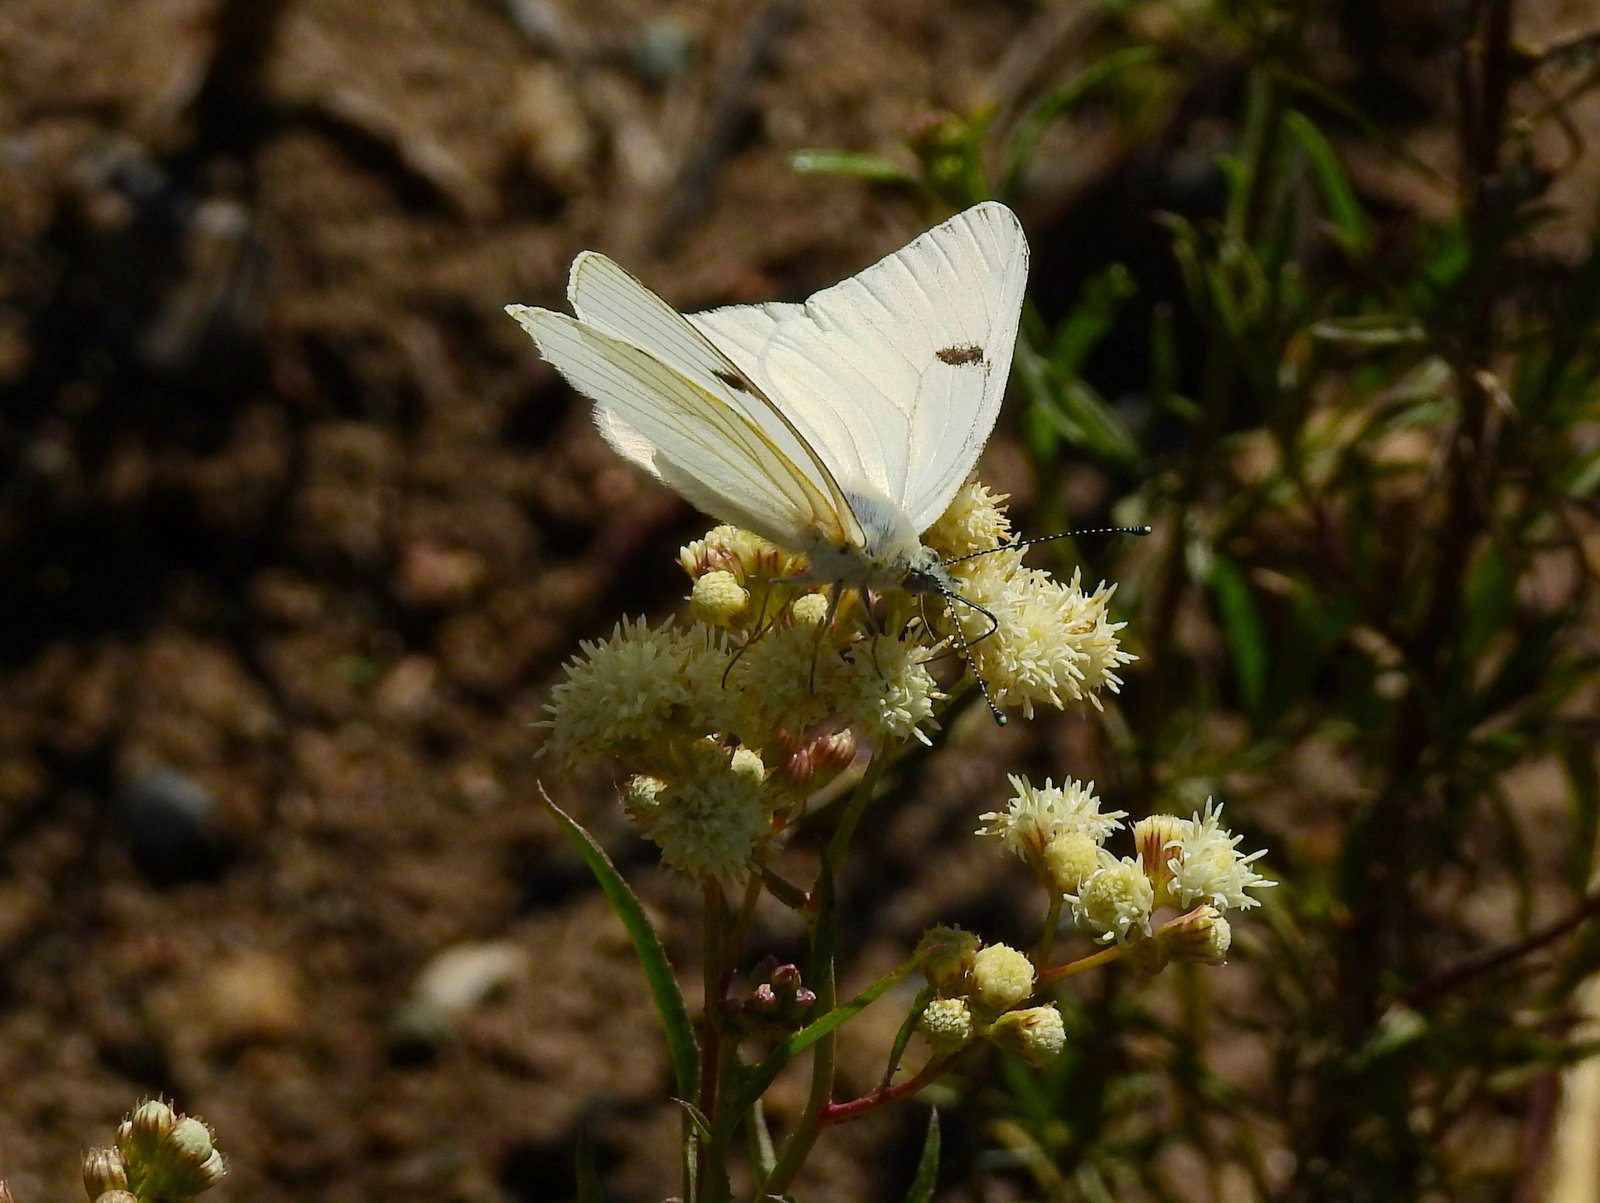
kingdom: Animalia
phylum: Arthropoda
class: Insecta
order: Lepidoptera
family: Pieridae
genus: Tatochila
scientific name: Tatochila mercedis
